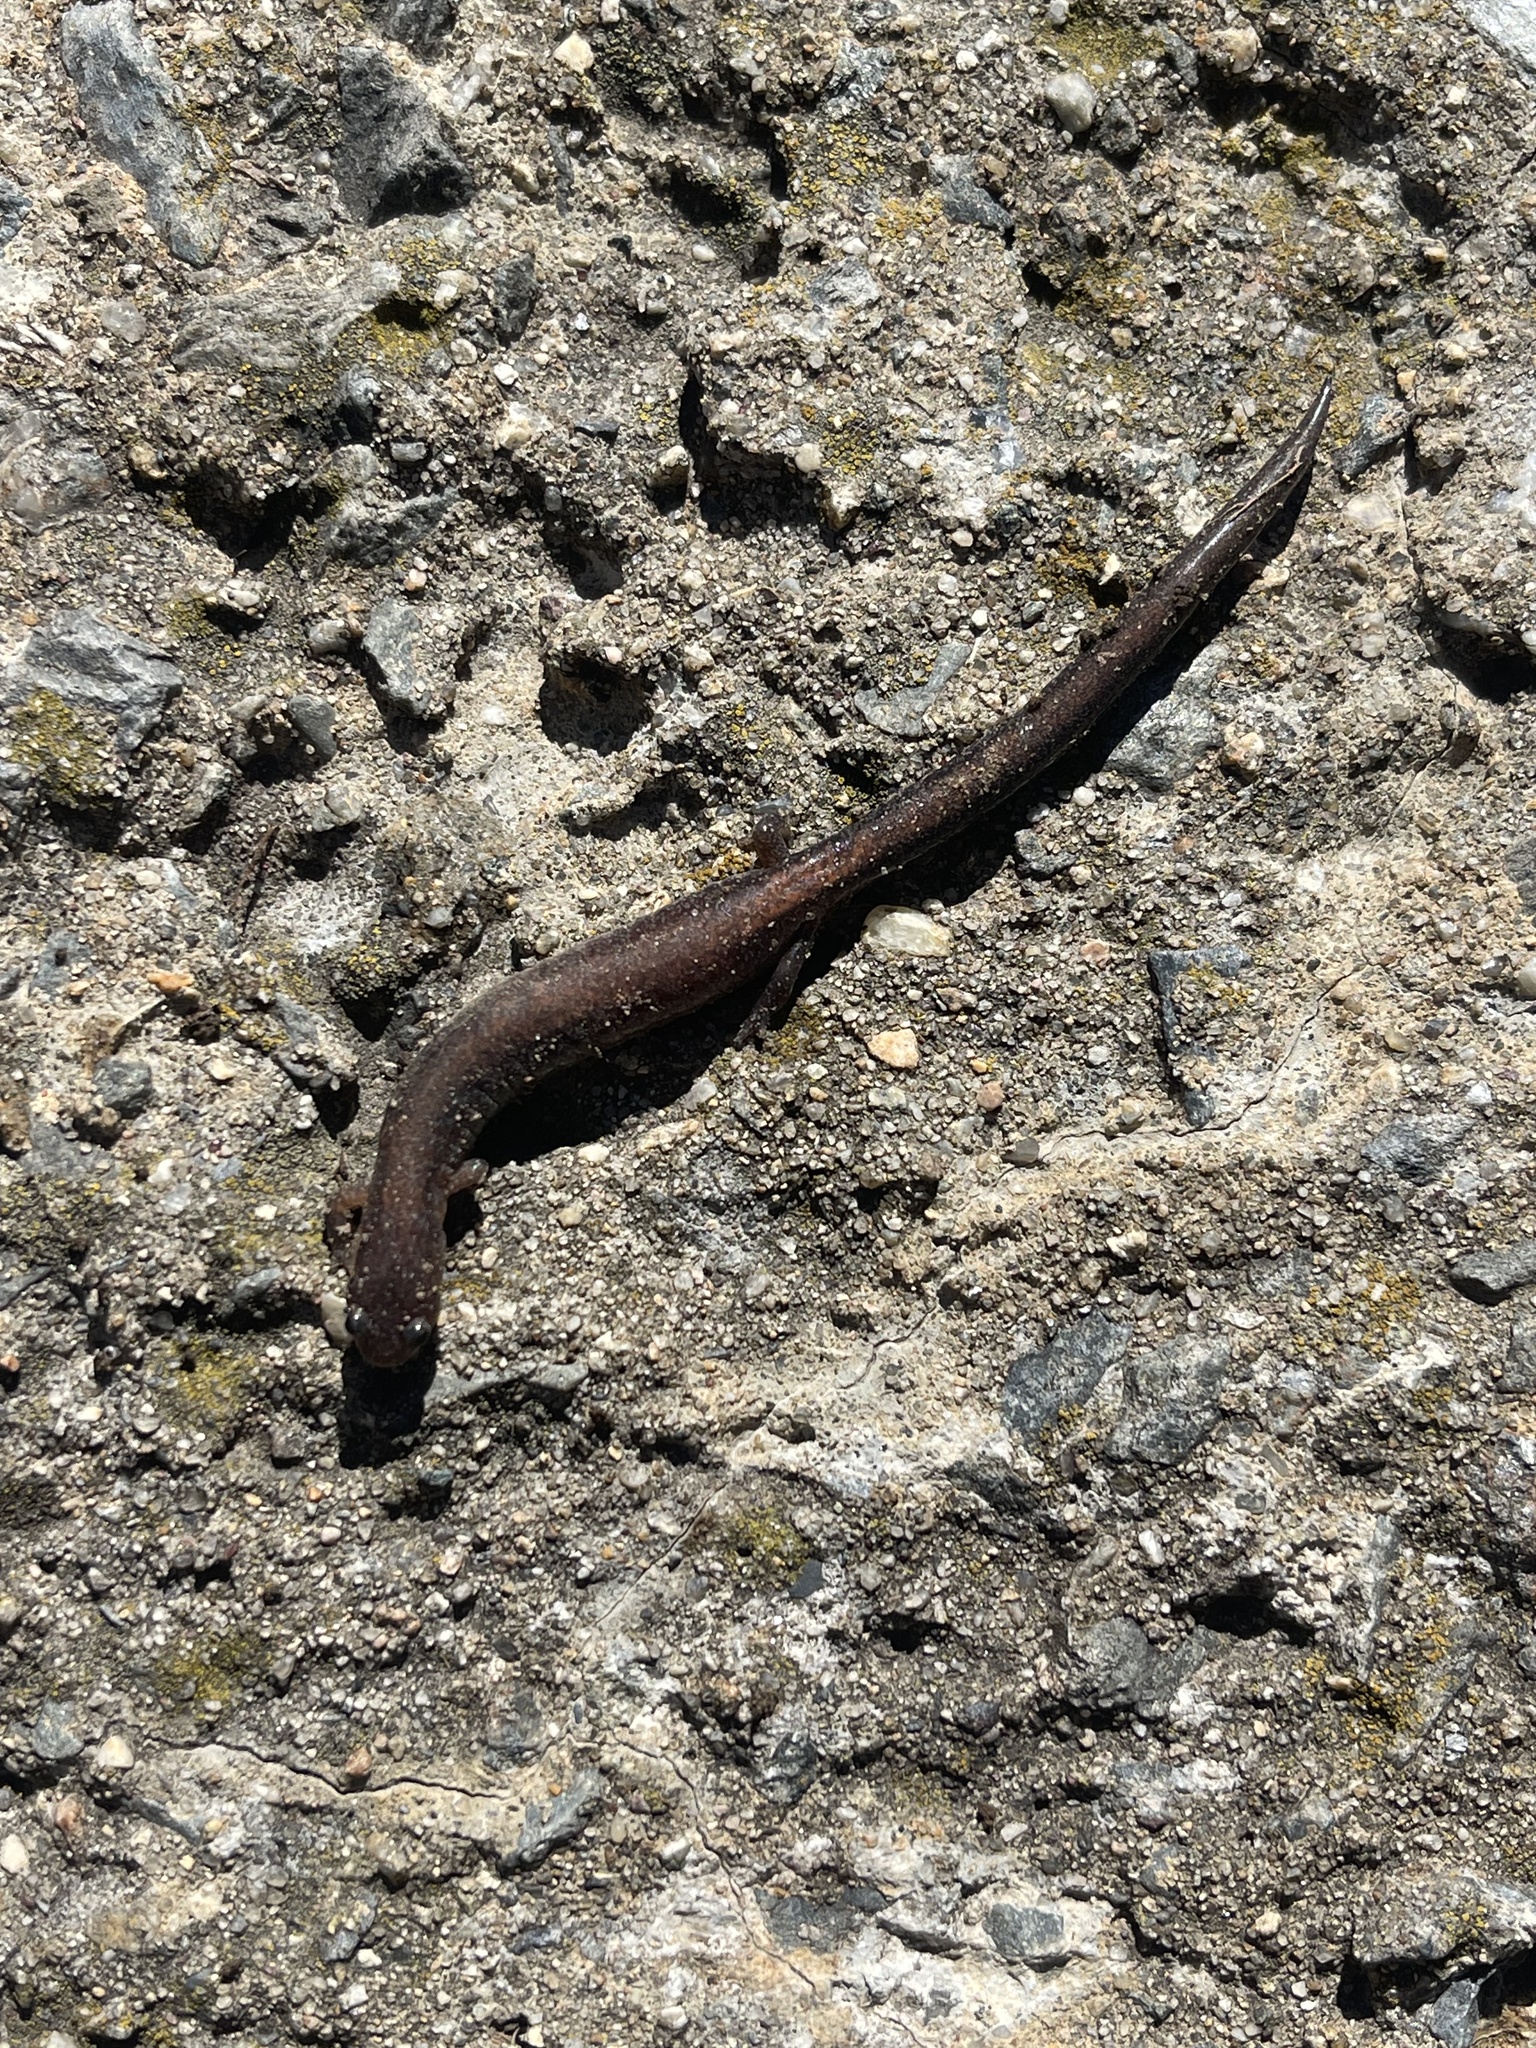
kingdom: Animalia
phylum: Chordata
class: Amphibia
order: Caudata
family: Plethodontidae
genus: Plethodon
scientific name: Plethodon cinereus
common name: Redback salamander
